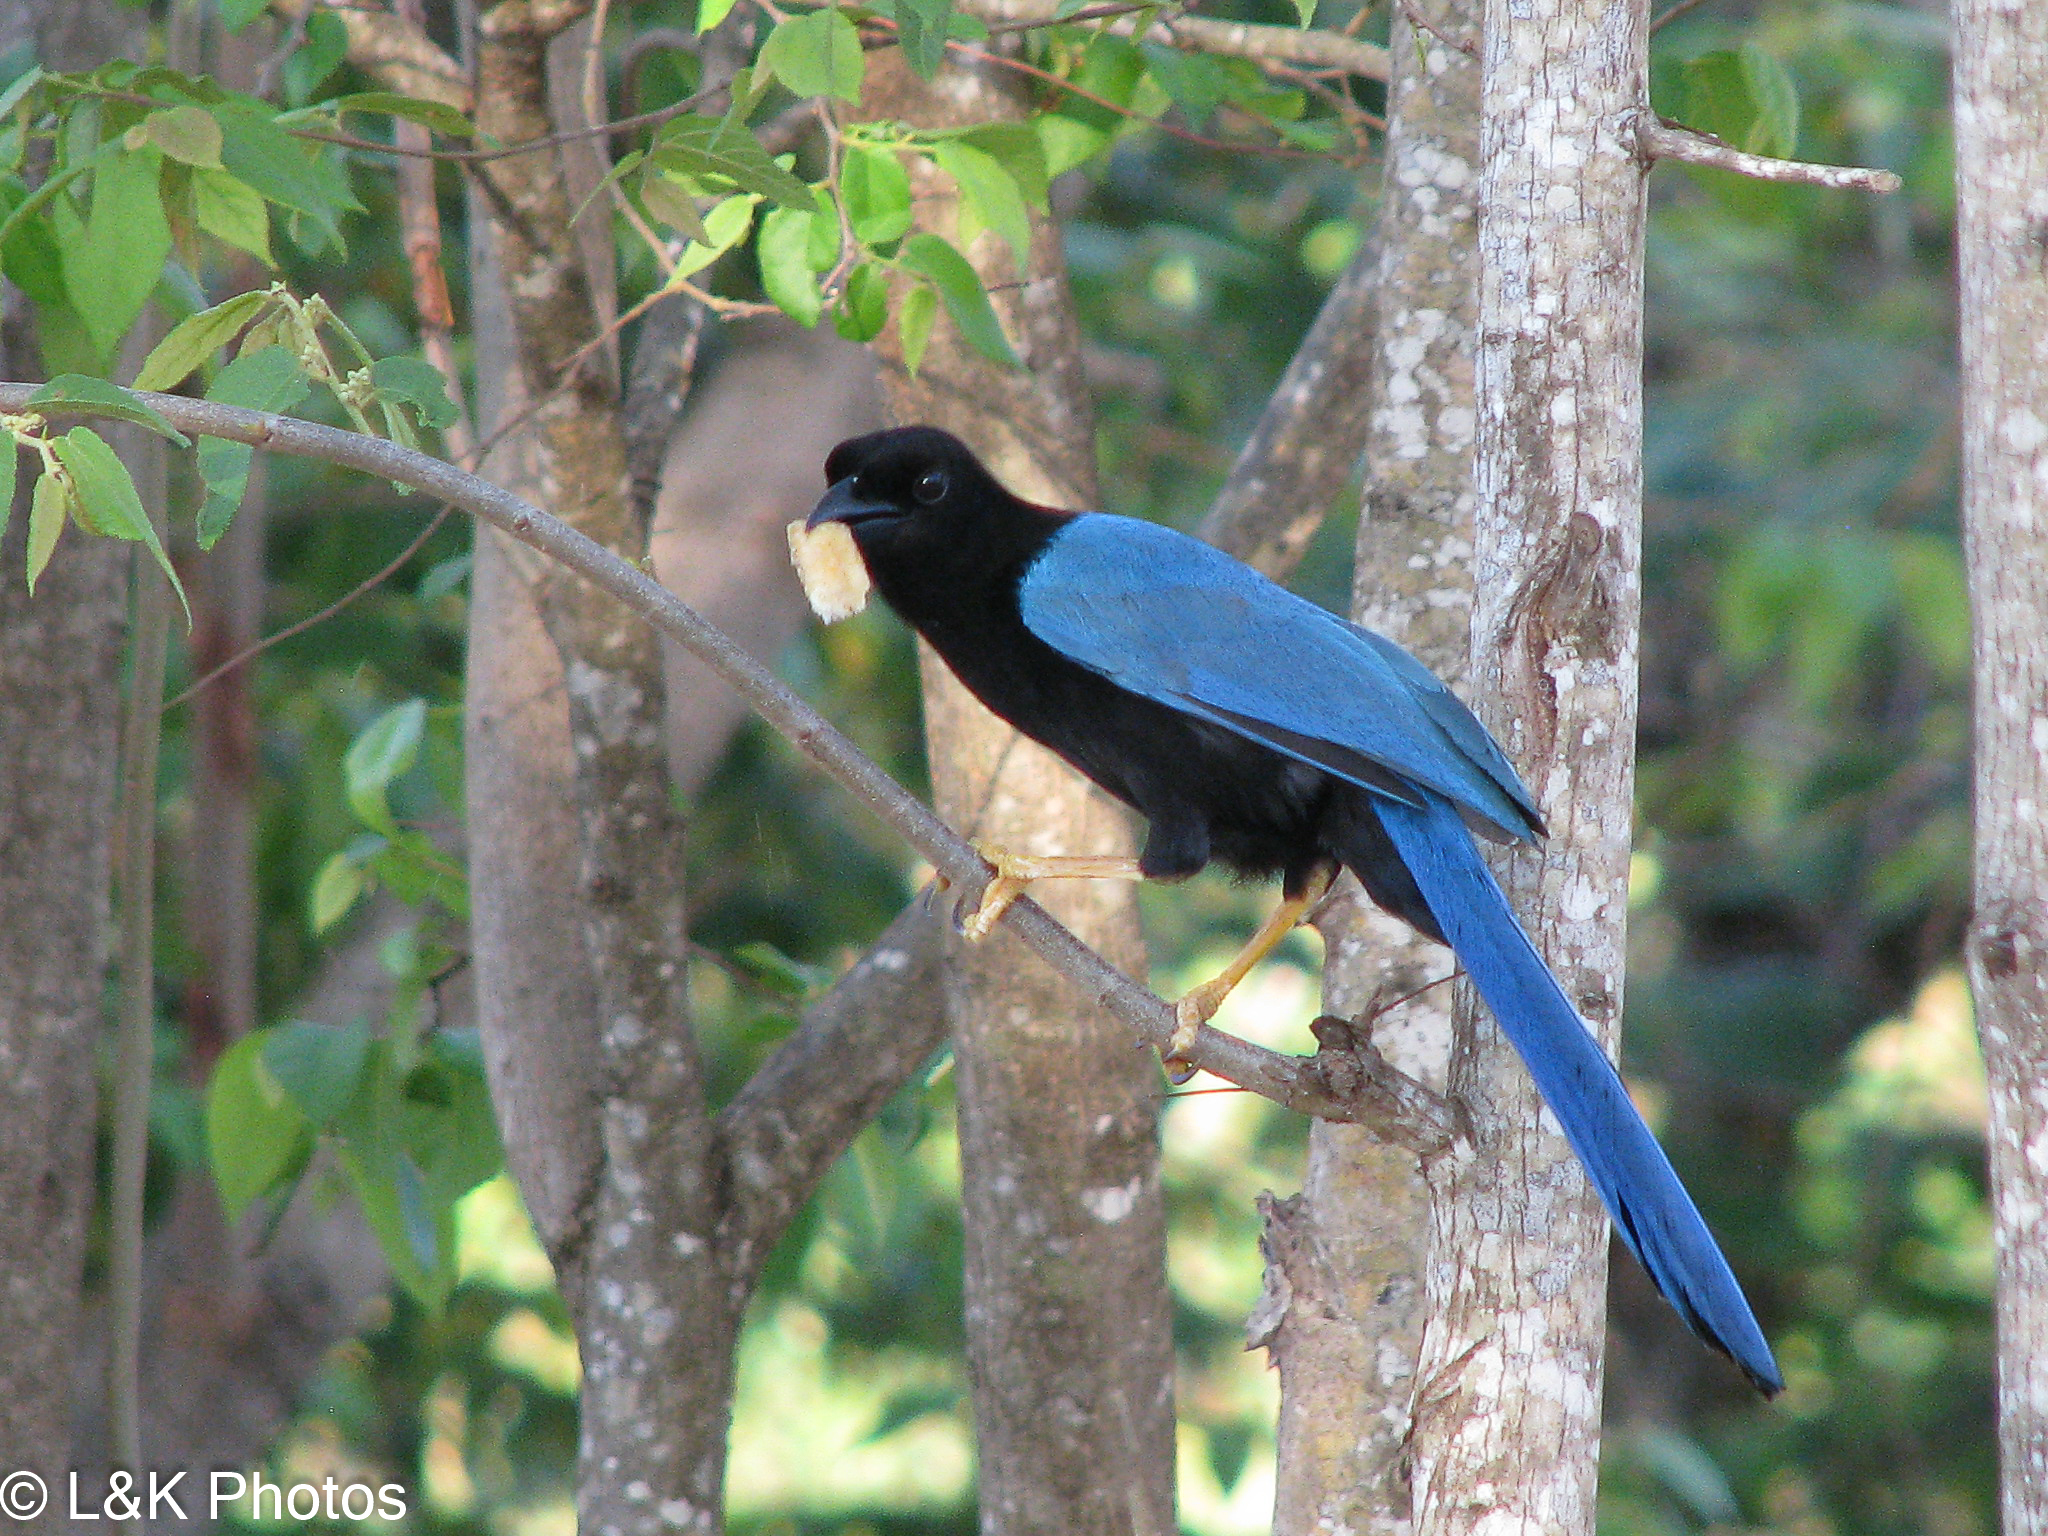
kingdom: Animalia
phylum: Chordata
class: Aves
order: Passeriformes
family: Corvidae
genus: Cyanocorax
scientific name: Cyanocorax yucatanicus
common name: Yucatan jay
